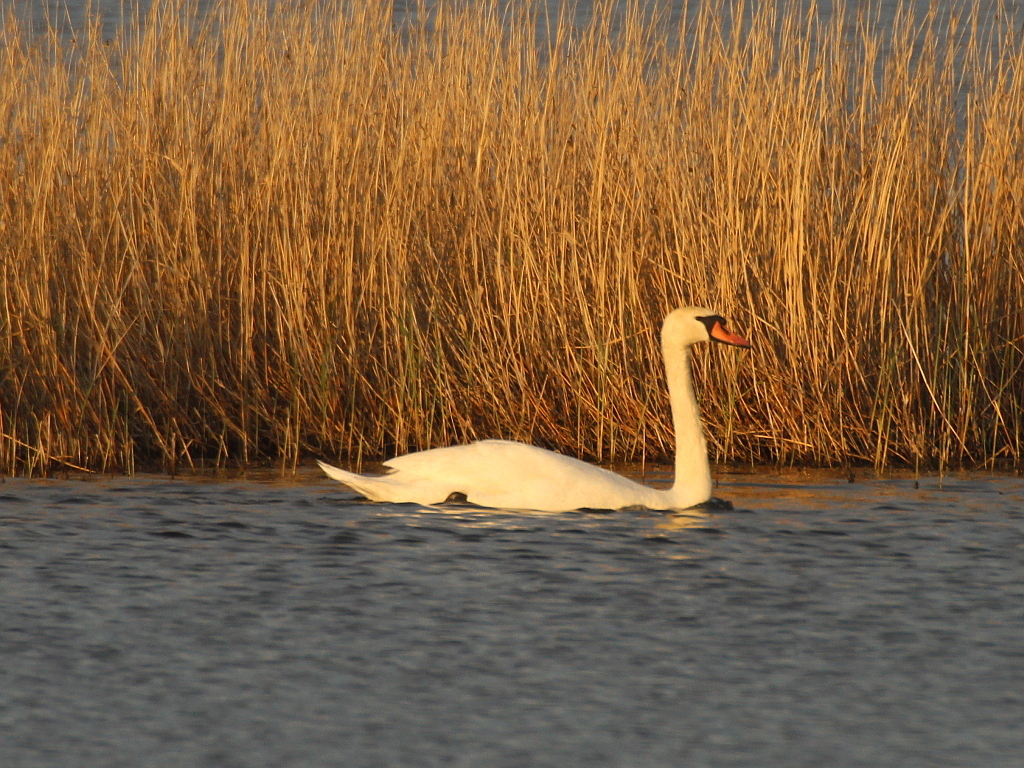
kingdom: Animalia
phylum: Chordata
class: Aves
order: Anseriformes
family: Anatidae
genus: Cygnus
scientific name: Cygnus olor
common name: Mute swan
